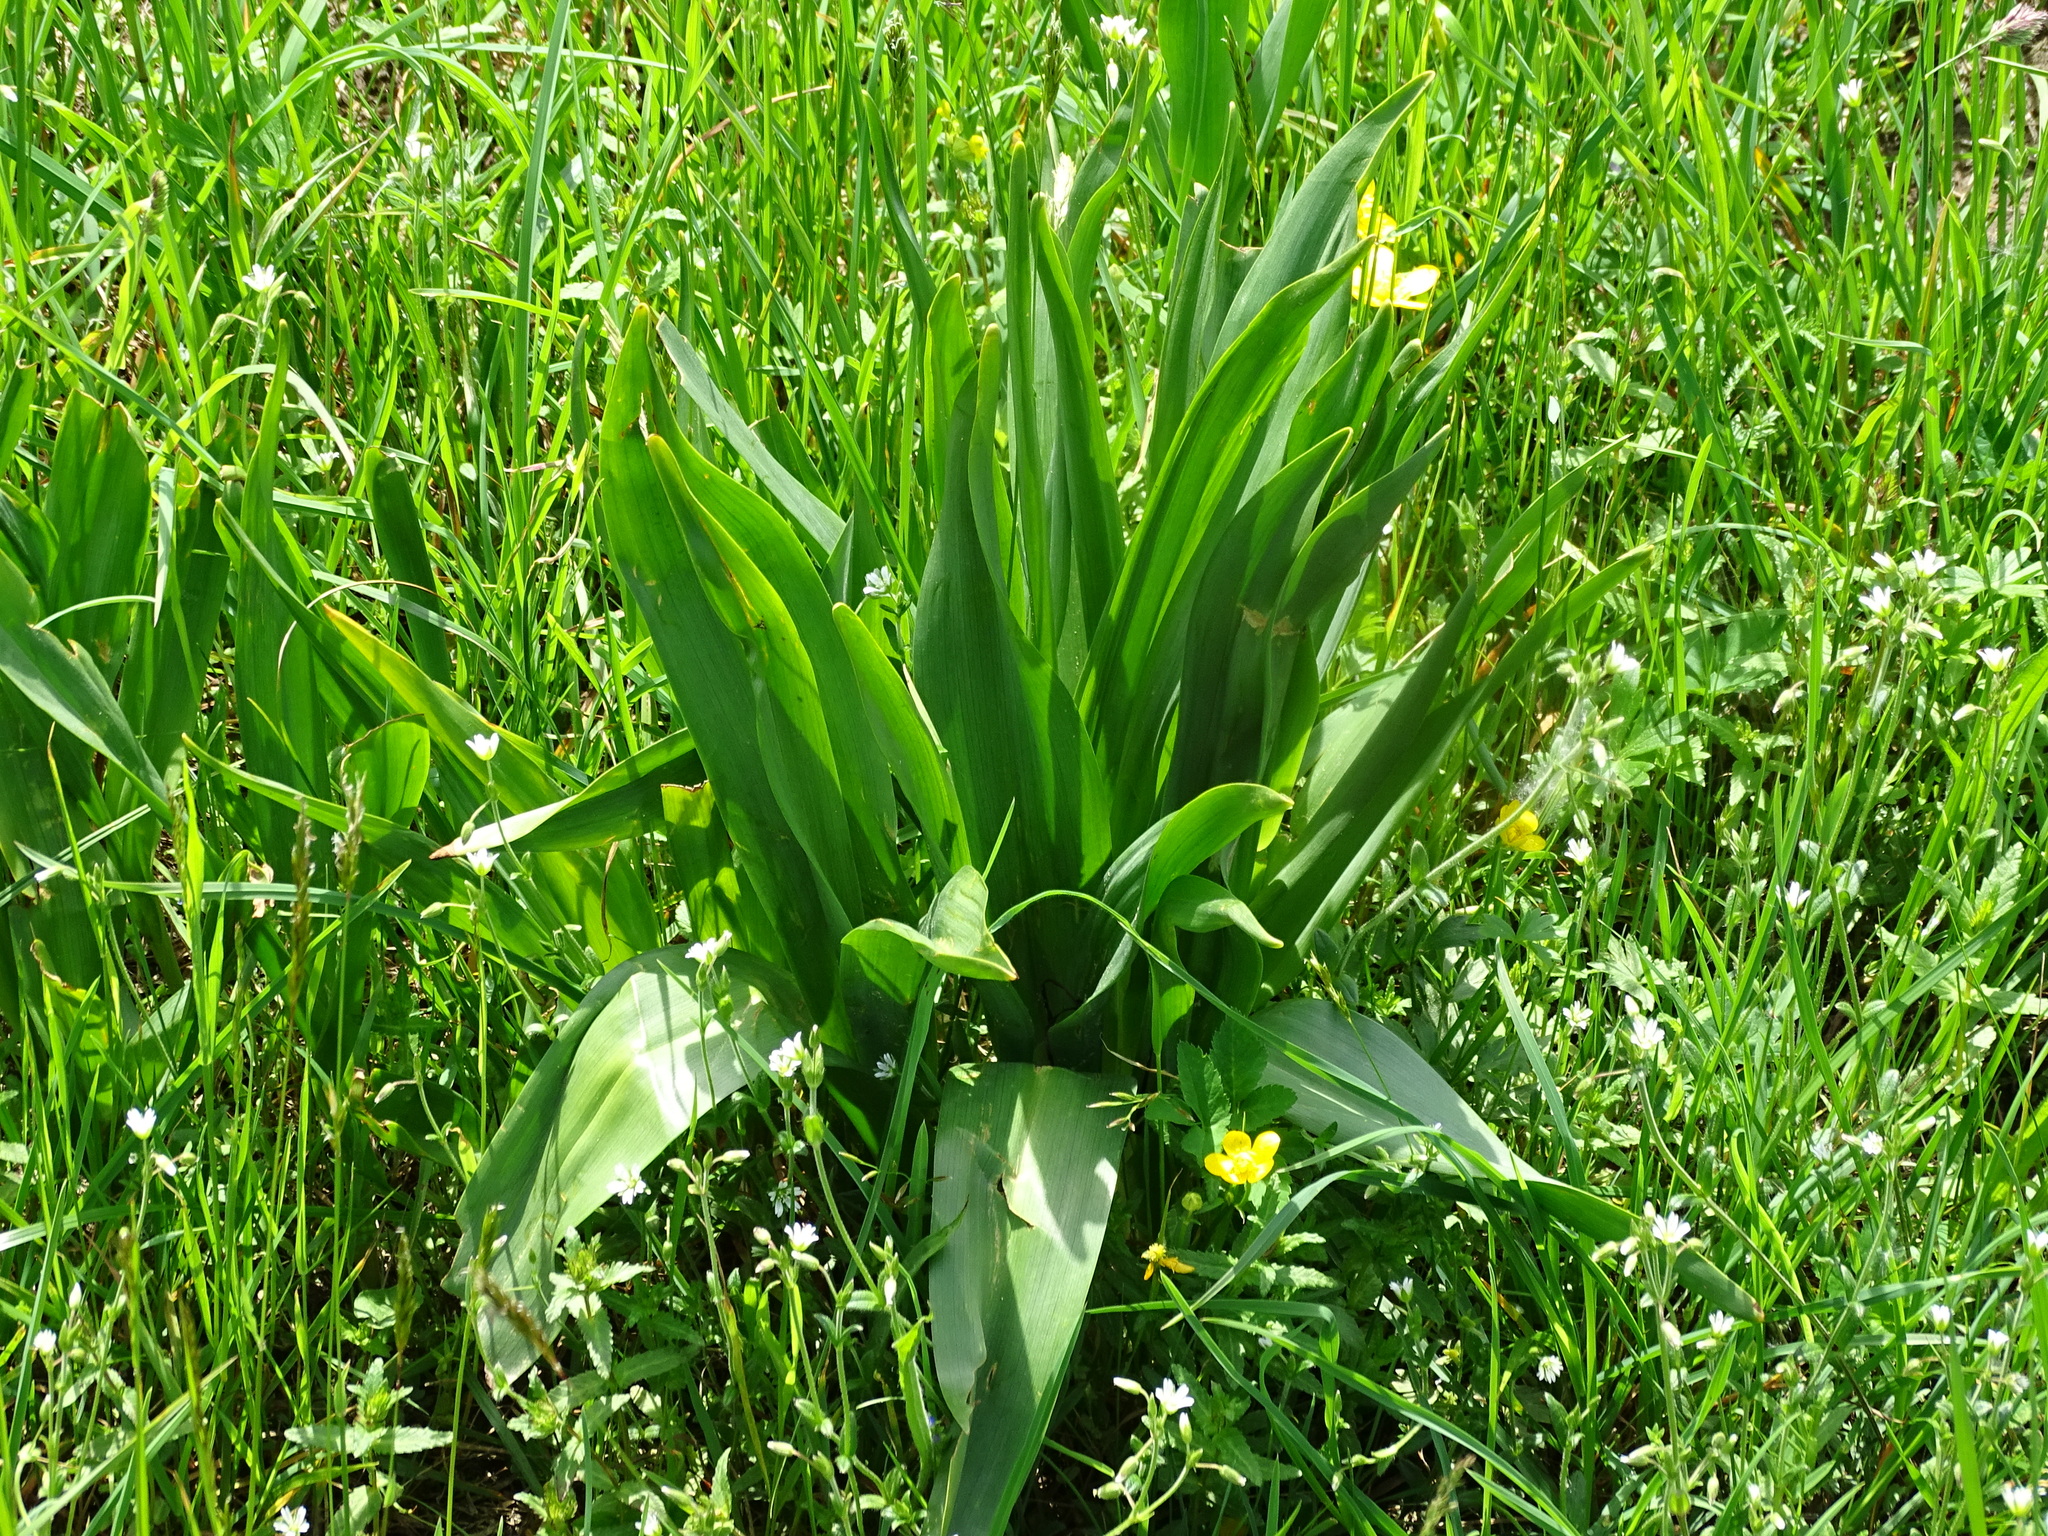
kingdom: Plantae
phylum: Tracheophyta
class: Liliopsida
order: Liliales
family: Colchicaceae
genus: Colchicum
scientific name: Colchicum autumnale
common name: Autumn crocus
